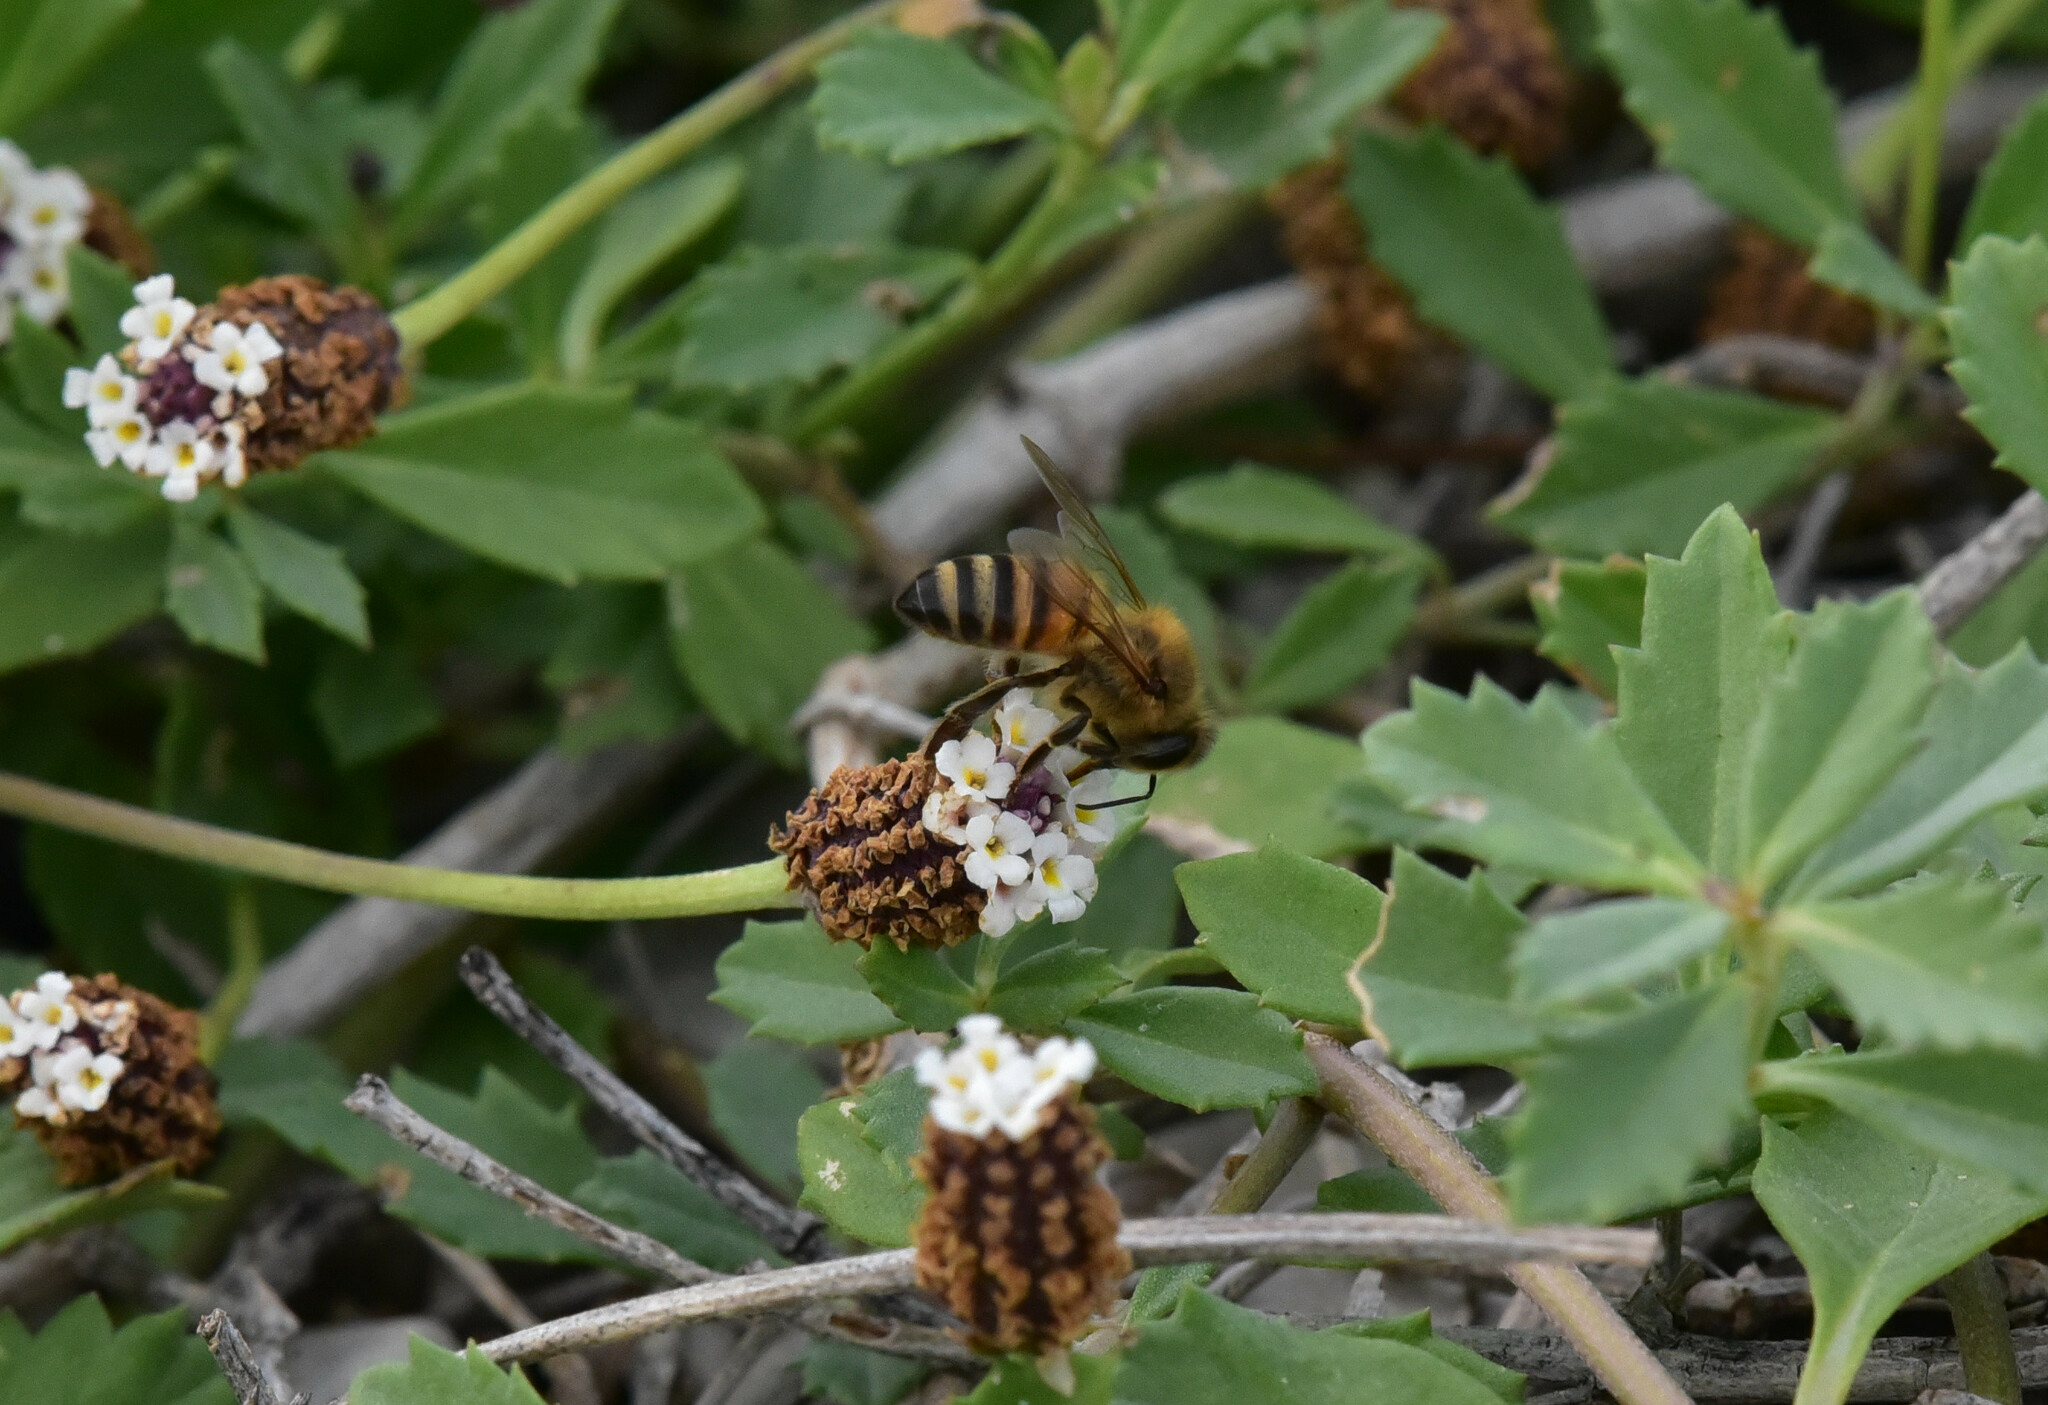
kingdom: Animalia
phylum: Arthropoda
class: Insecta
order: Hymenoptera
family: Apidae
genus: Apis
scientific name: Apis mellifera
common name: Honey bee
